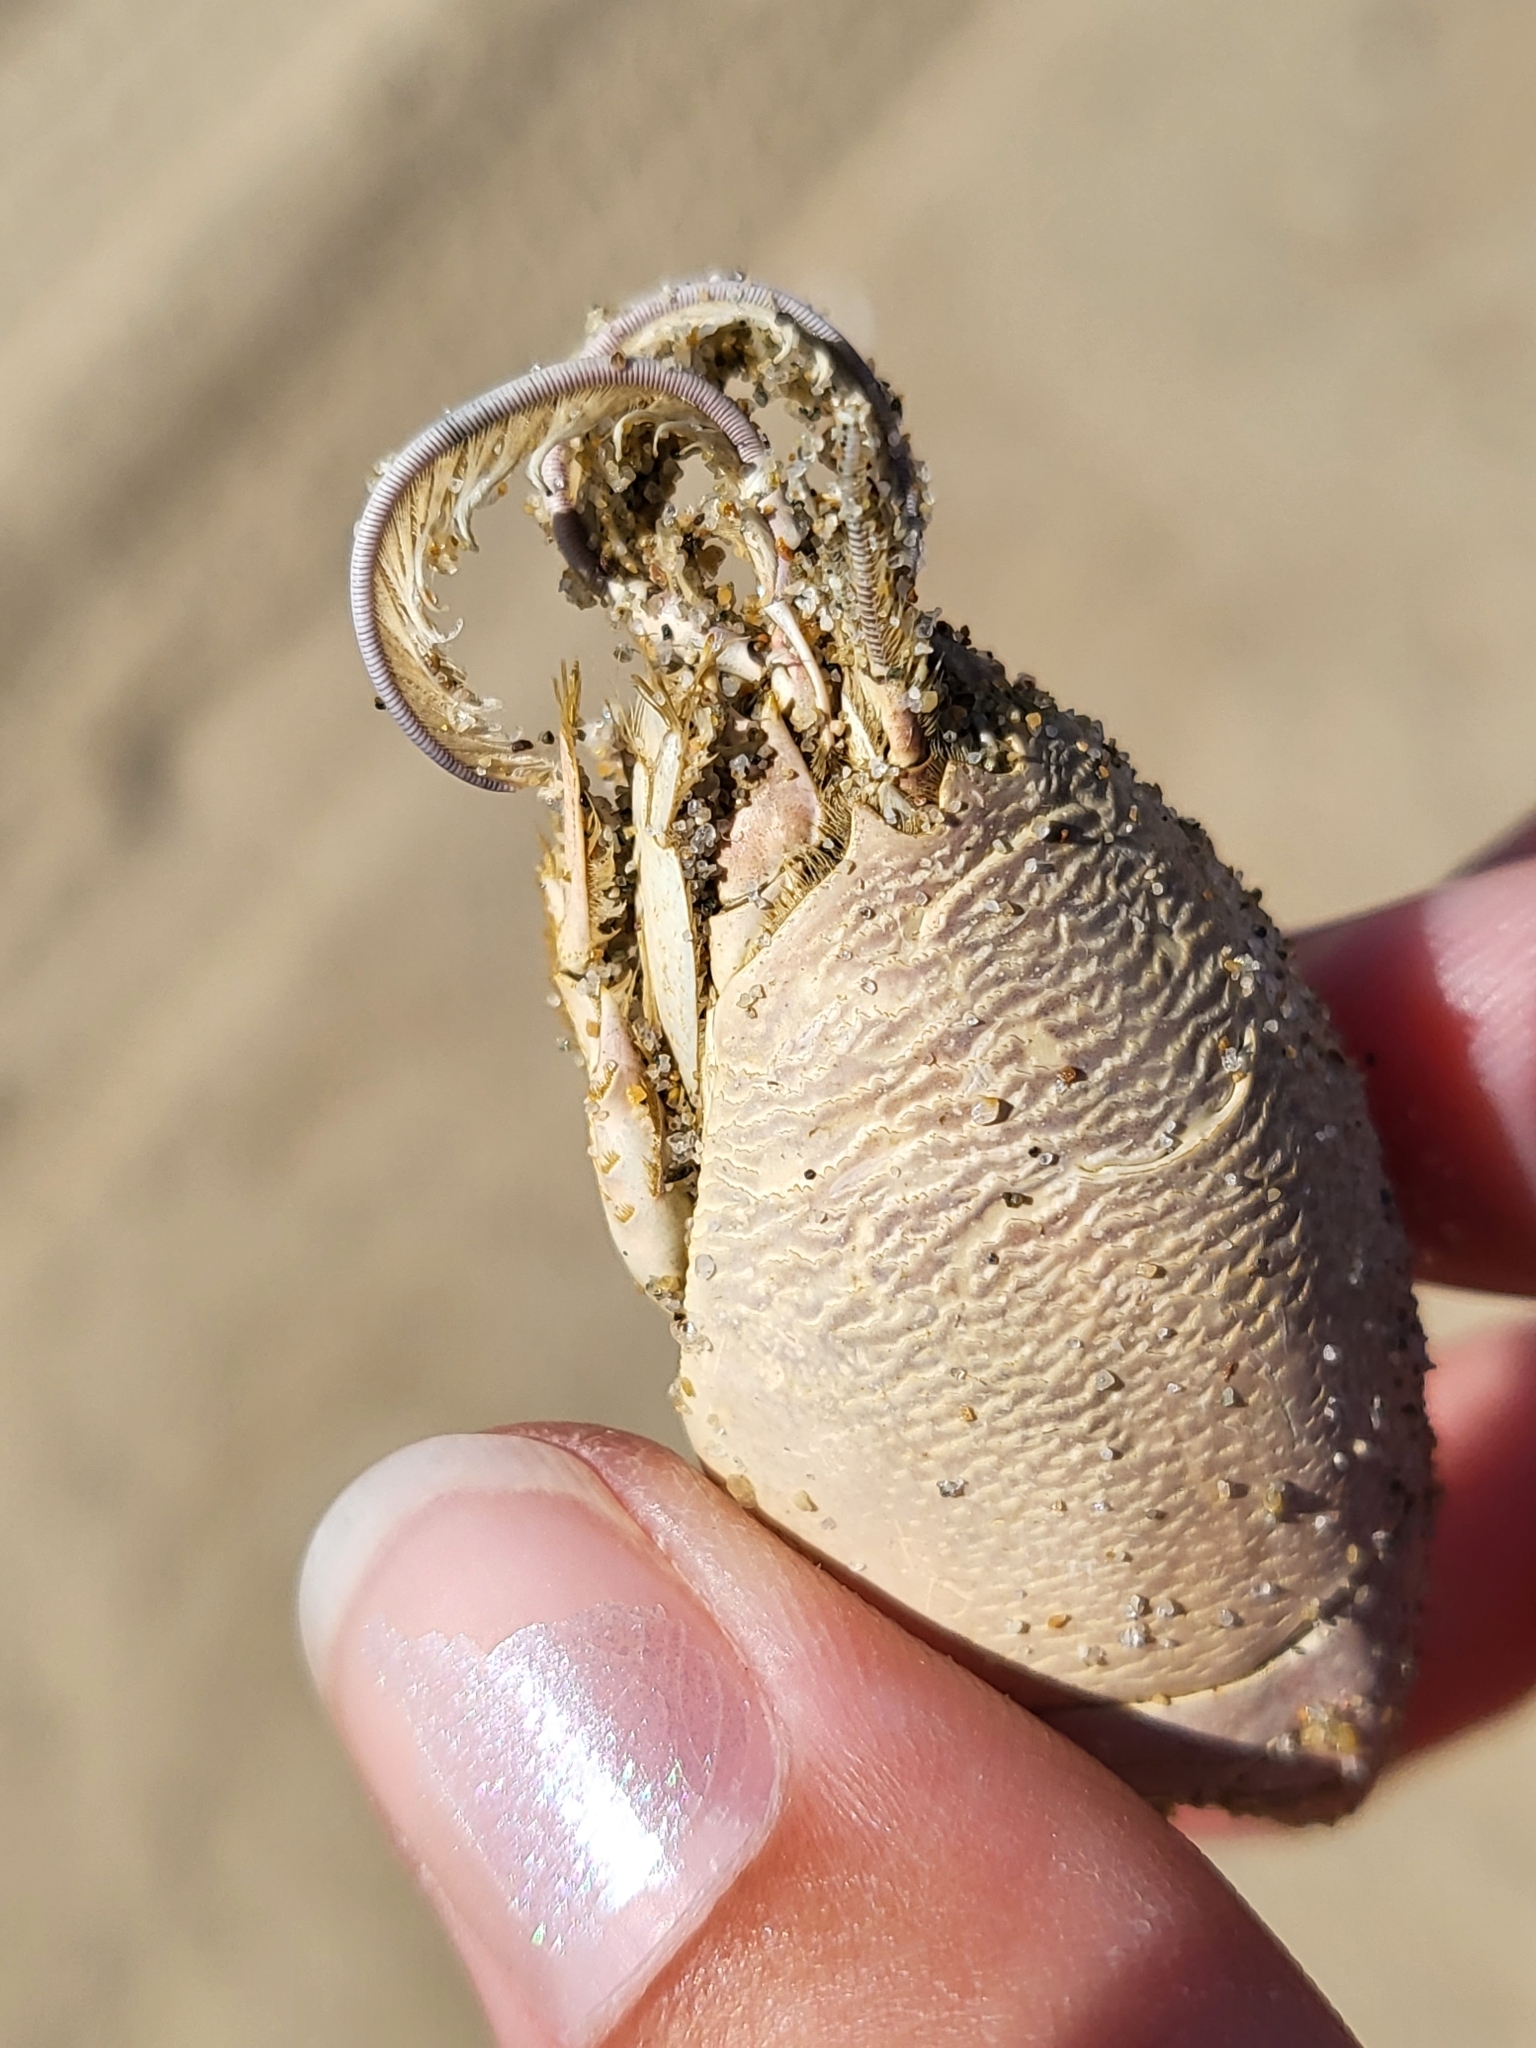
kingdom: Animalia
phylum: Arthropoda
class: Malacostraca
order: Decapoda
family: Hippidae
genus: Emerita
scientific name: Emerita analoga
